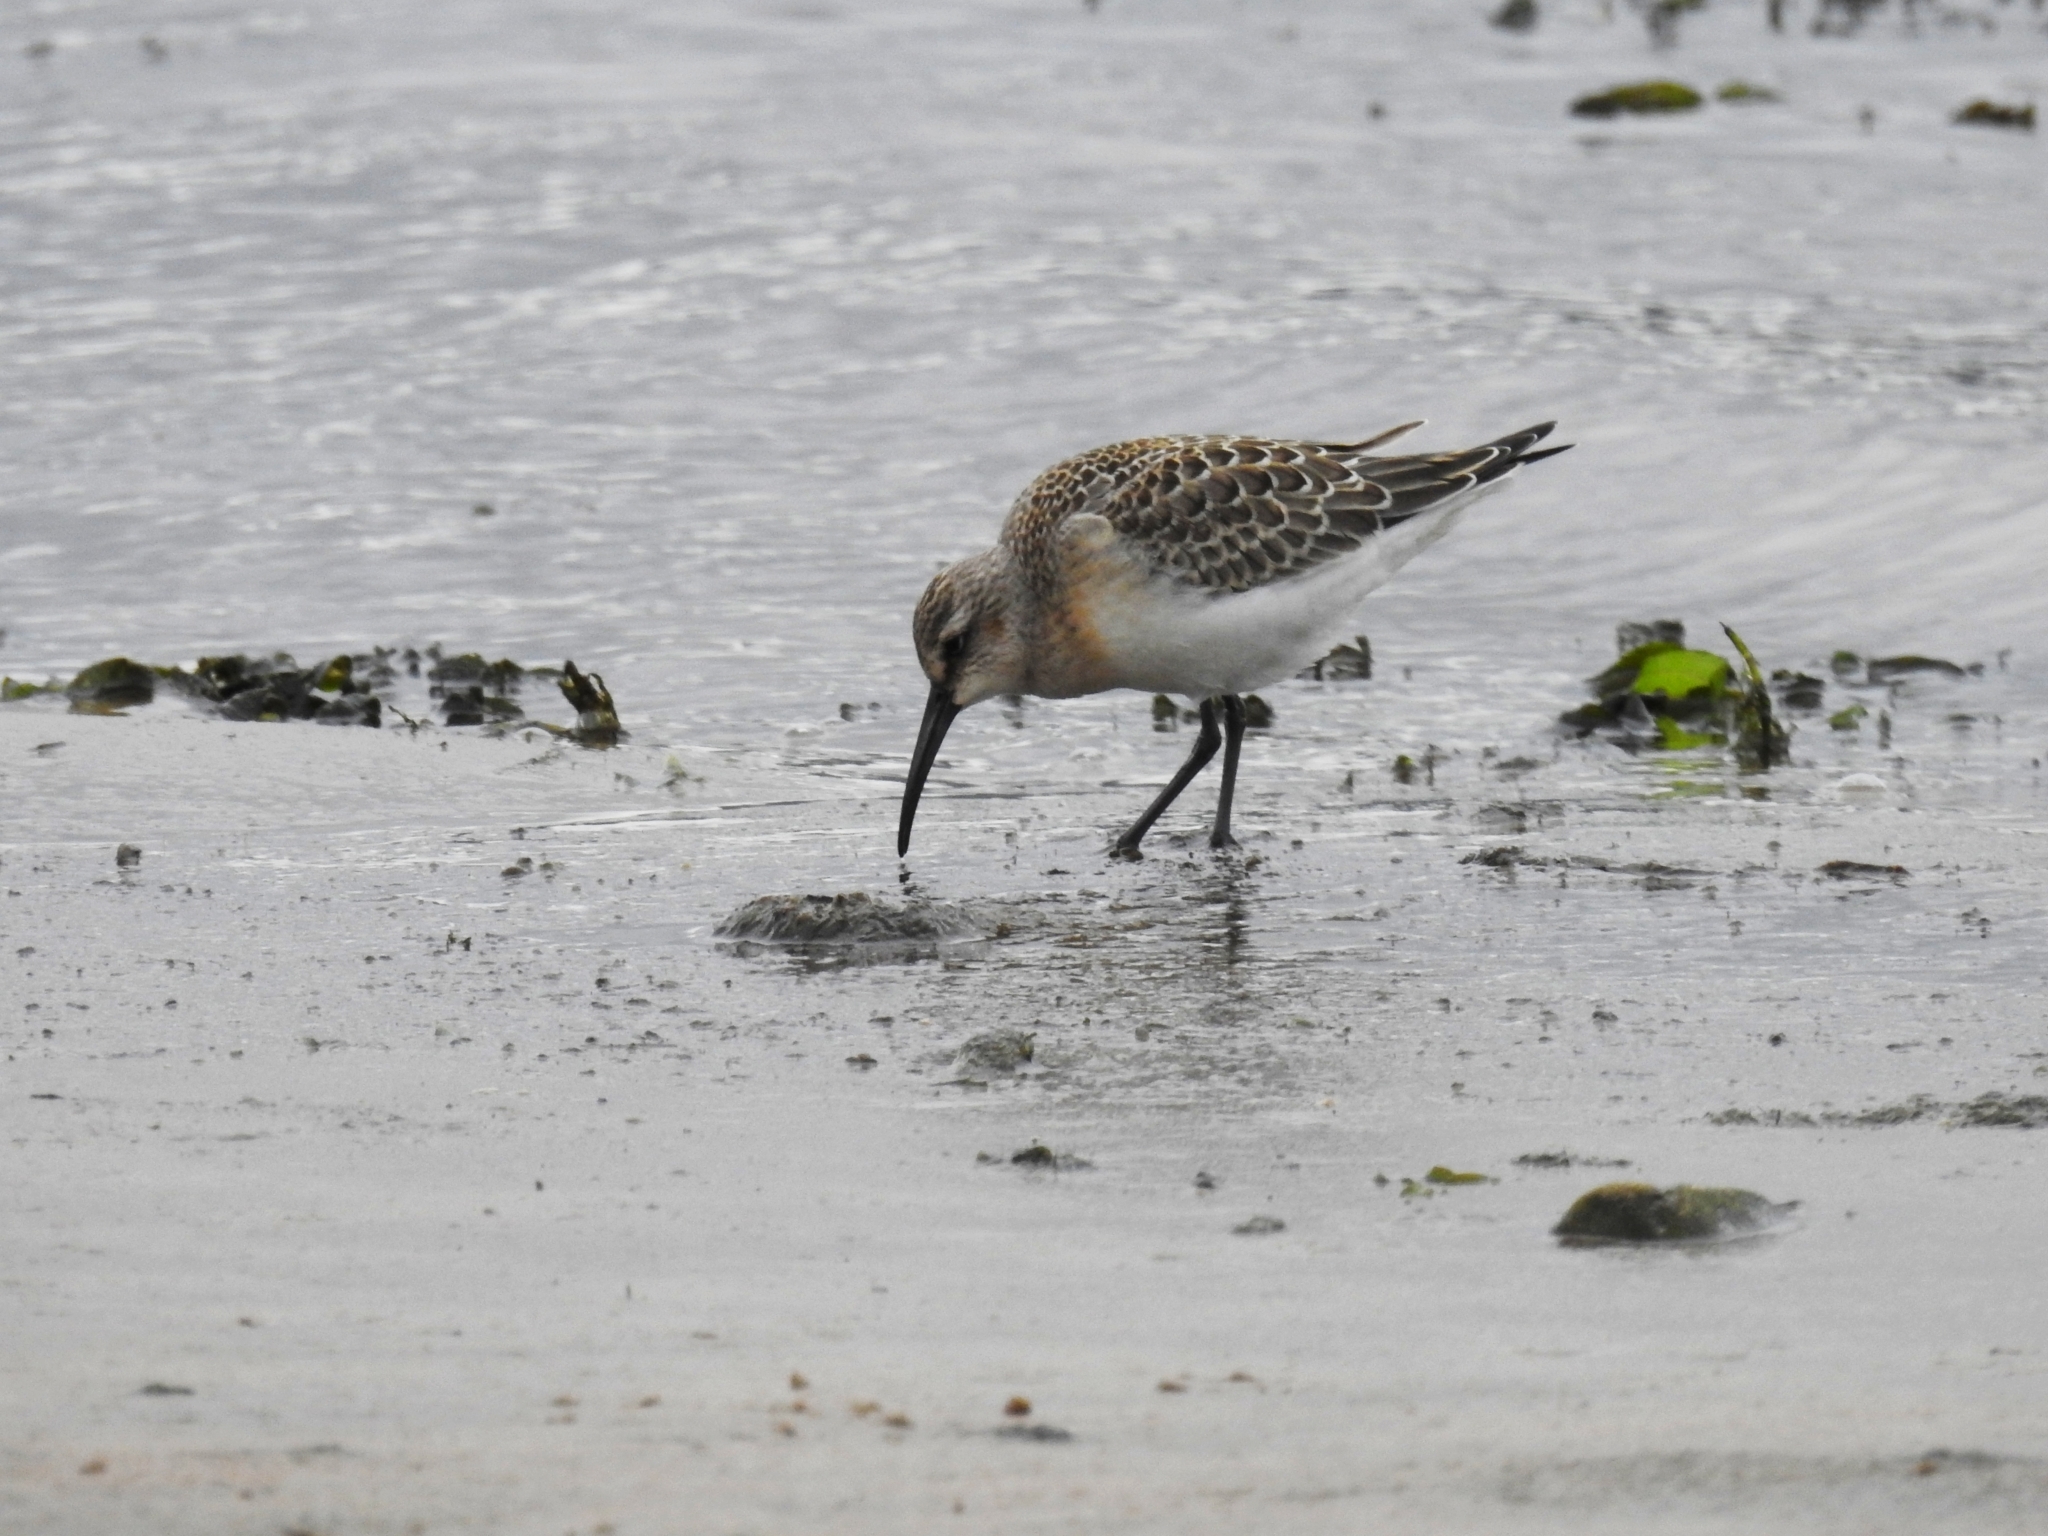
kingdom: Animalia
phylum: Chordata
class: Aves
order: Charadriiformes
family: Scolopacidae
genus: Calidris
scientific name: Calidris ferruginea
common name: Curlew sandpiper
